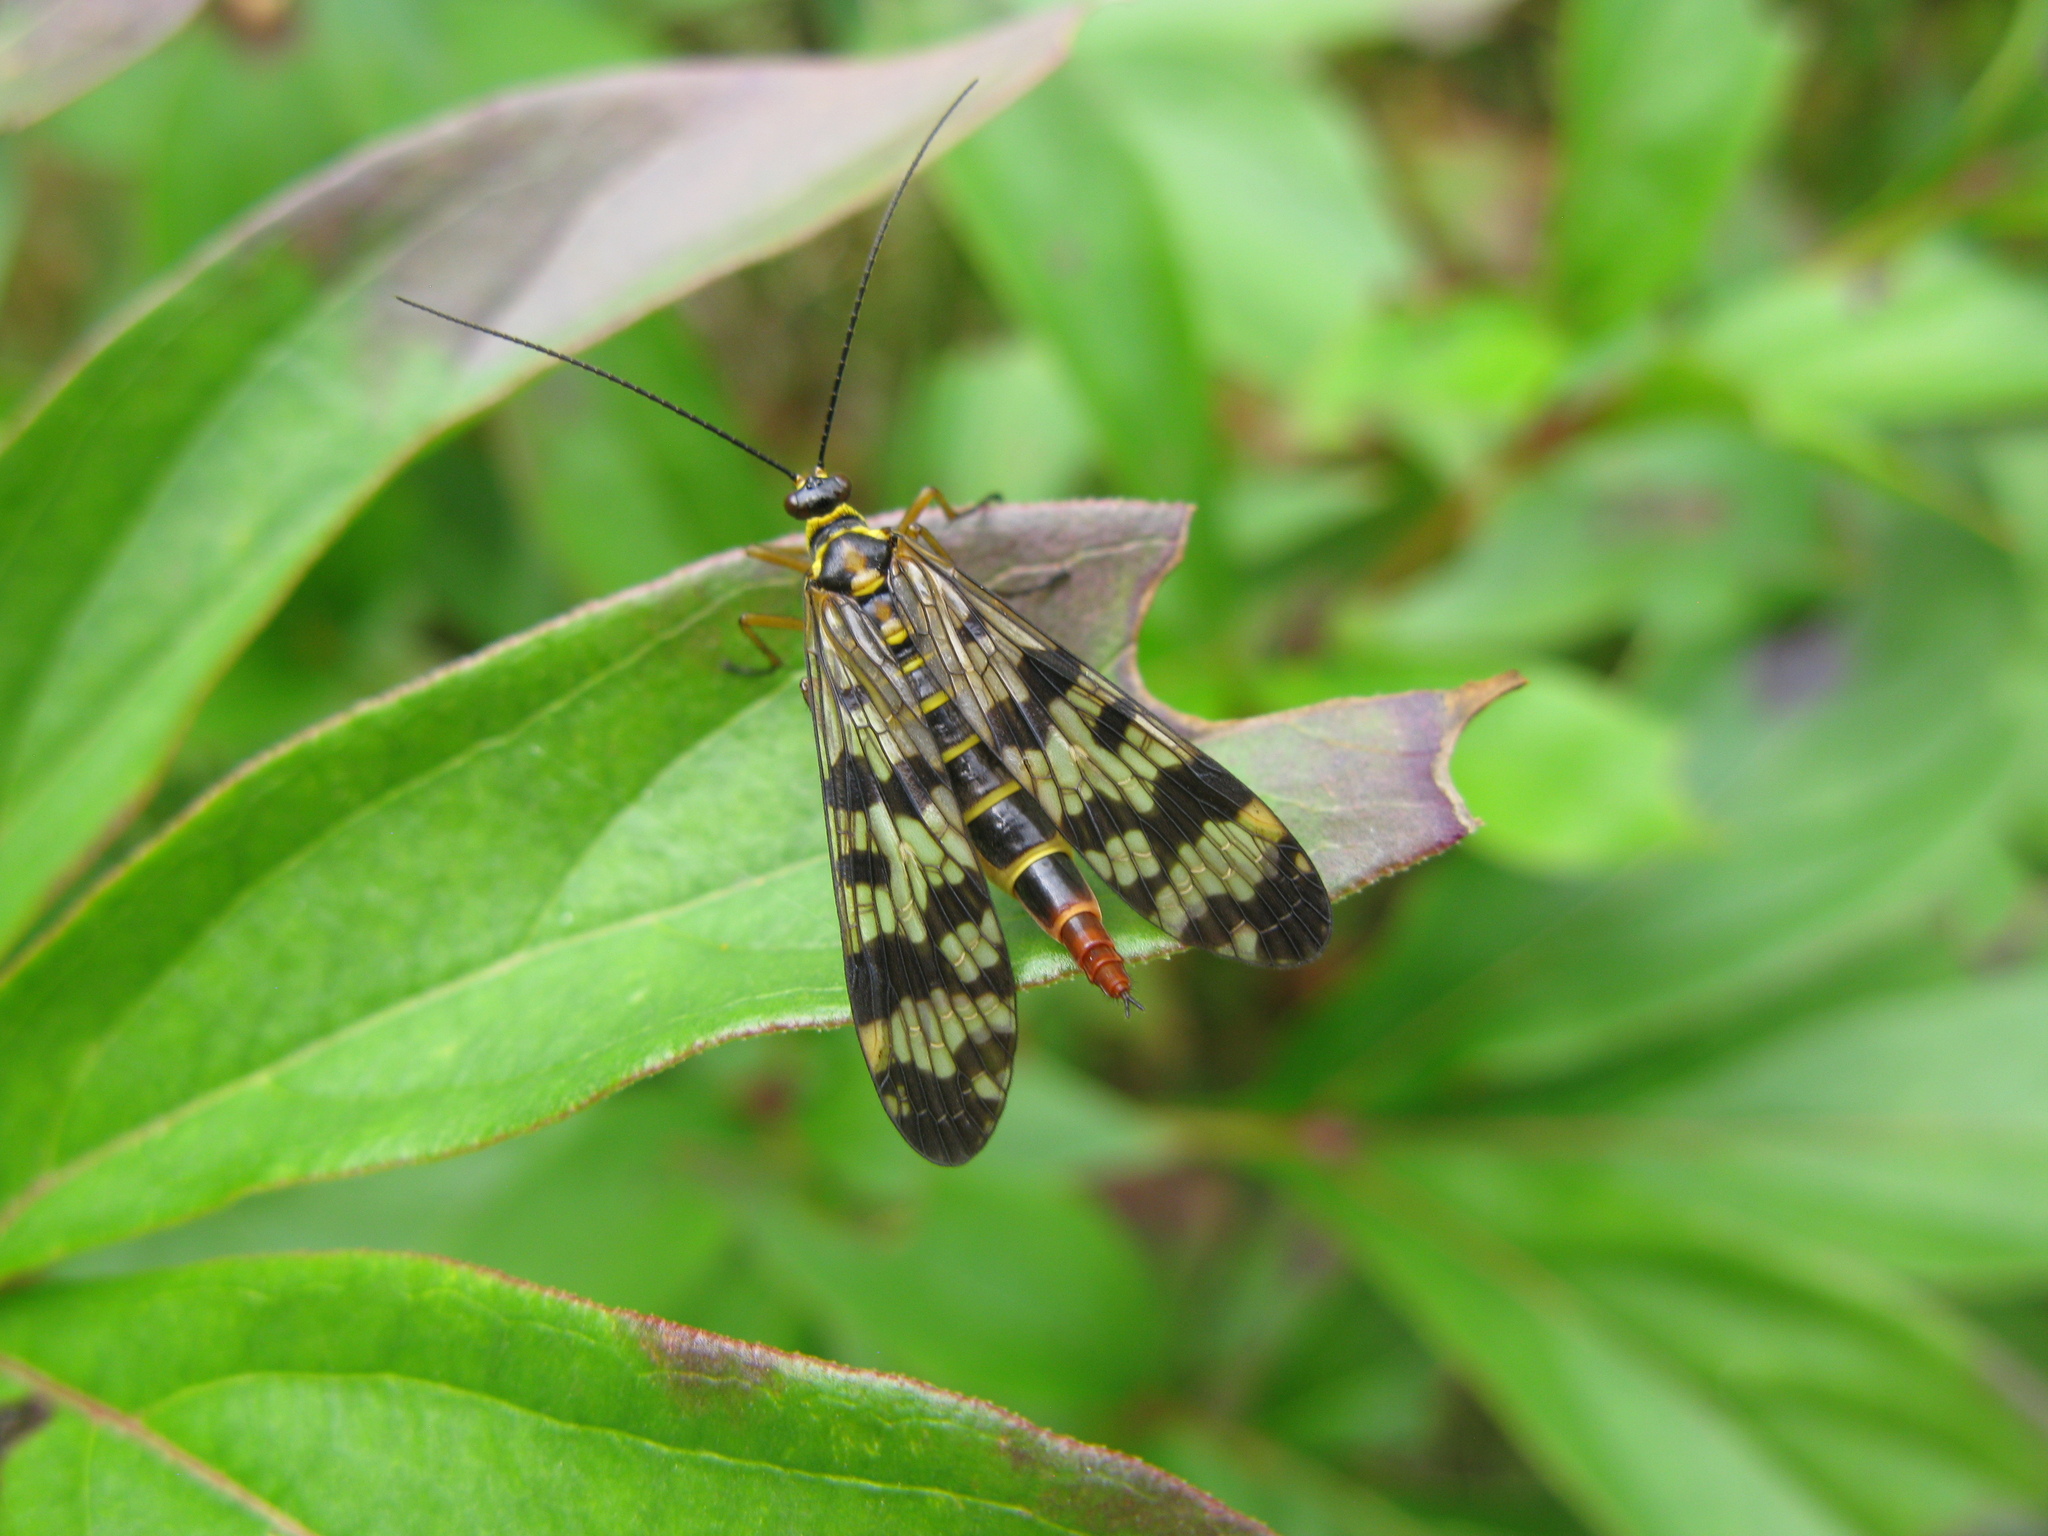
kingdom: Animalia
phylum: Arthropoda
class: Insecta
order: Mecoptera
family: Panorpidae
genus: Panorpa
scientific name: Panorpa communis
